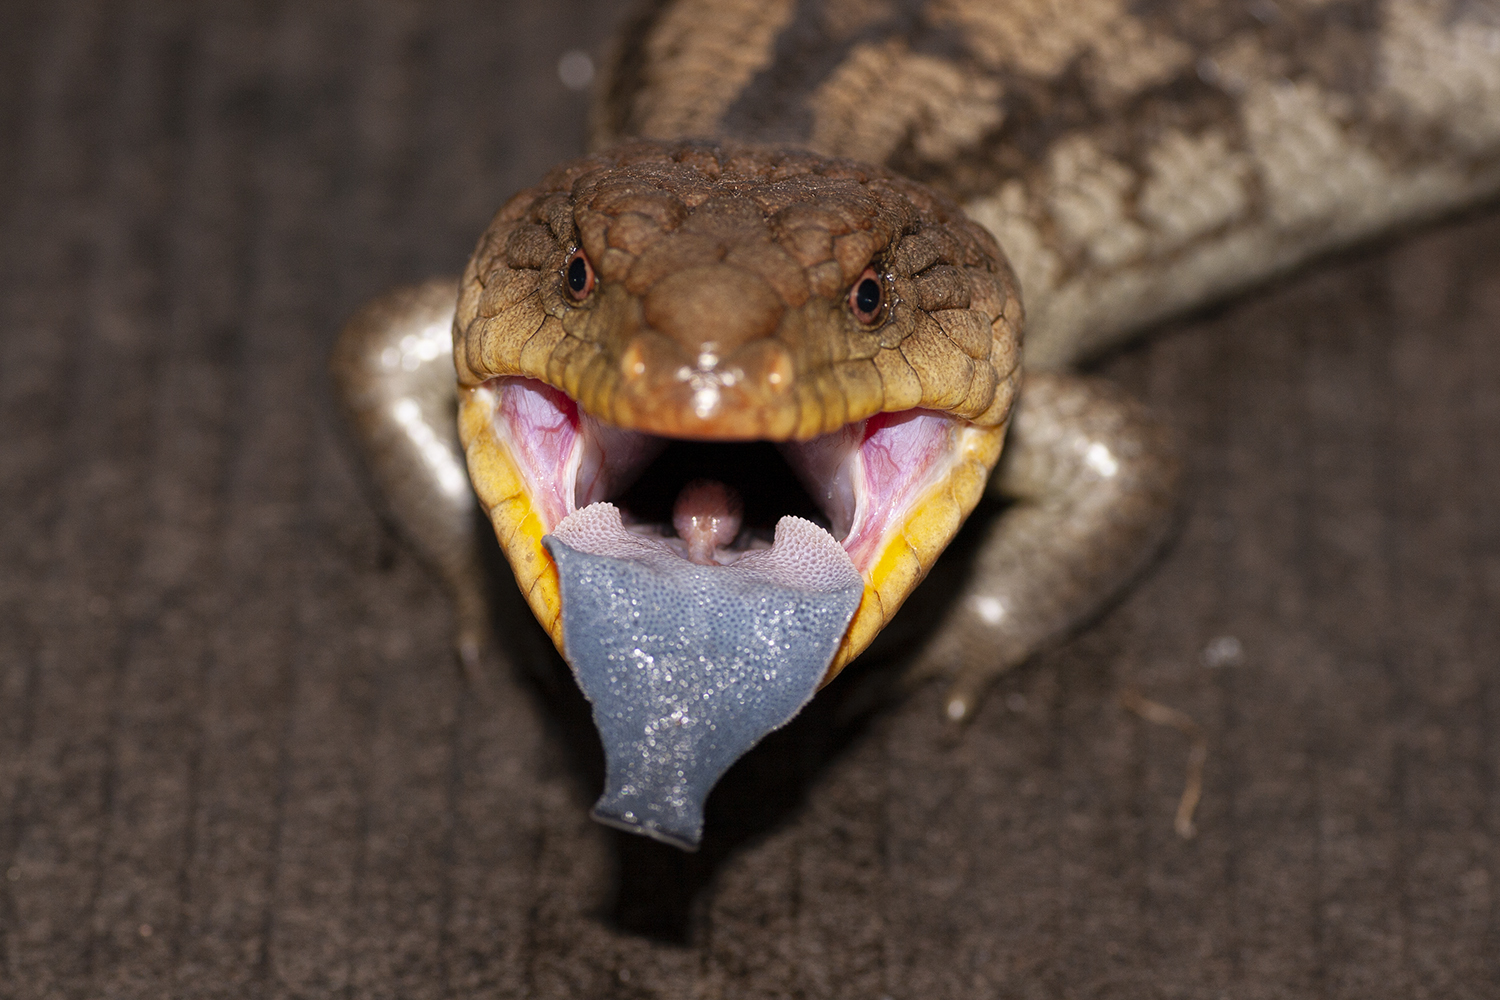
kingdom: Animalia
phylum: Chordata
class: Squamata
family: Scincidae
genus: Tiliqua
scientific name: Tiliqua nigrolutea
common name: Blotched blue-tongued lizard
